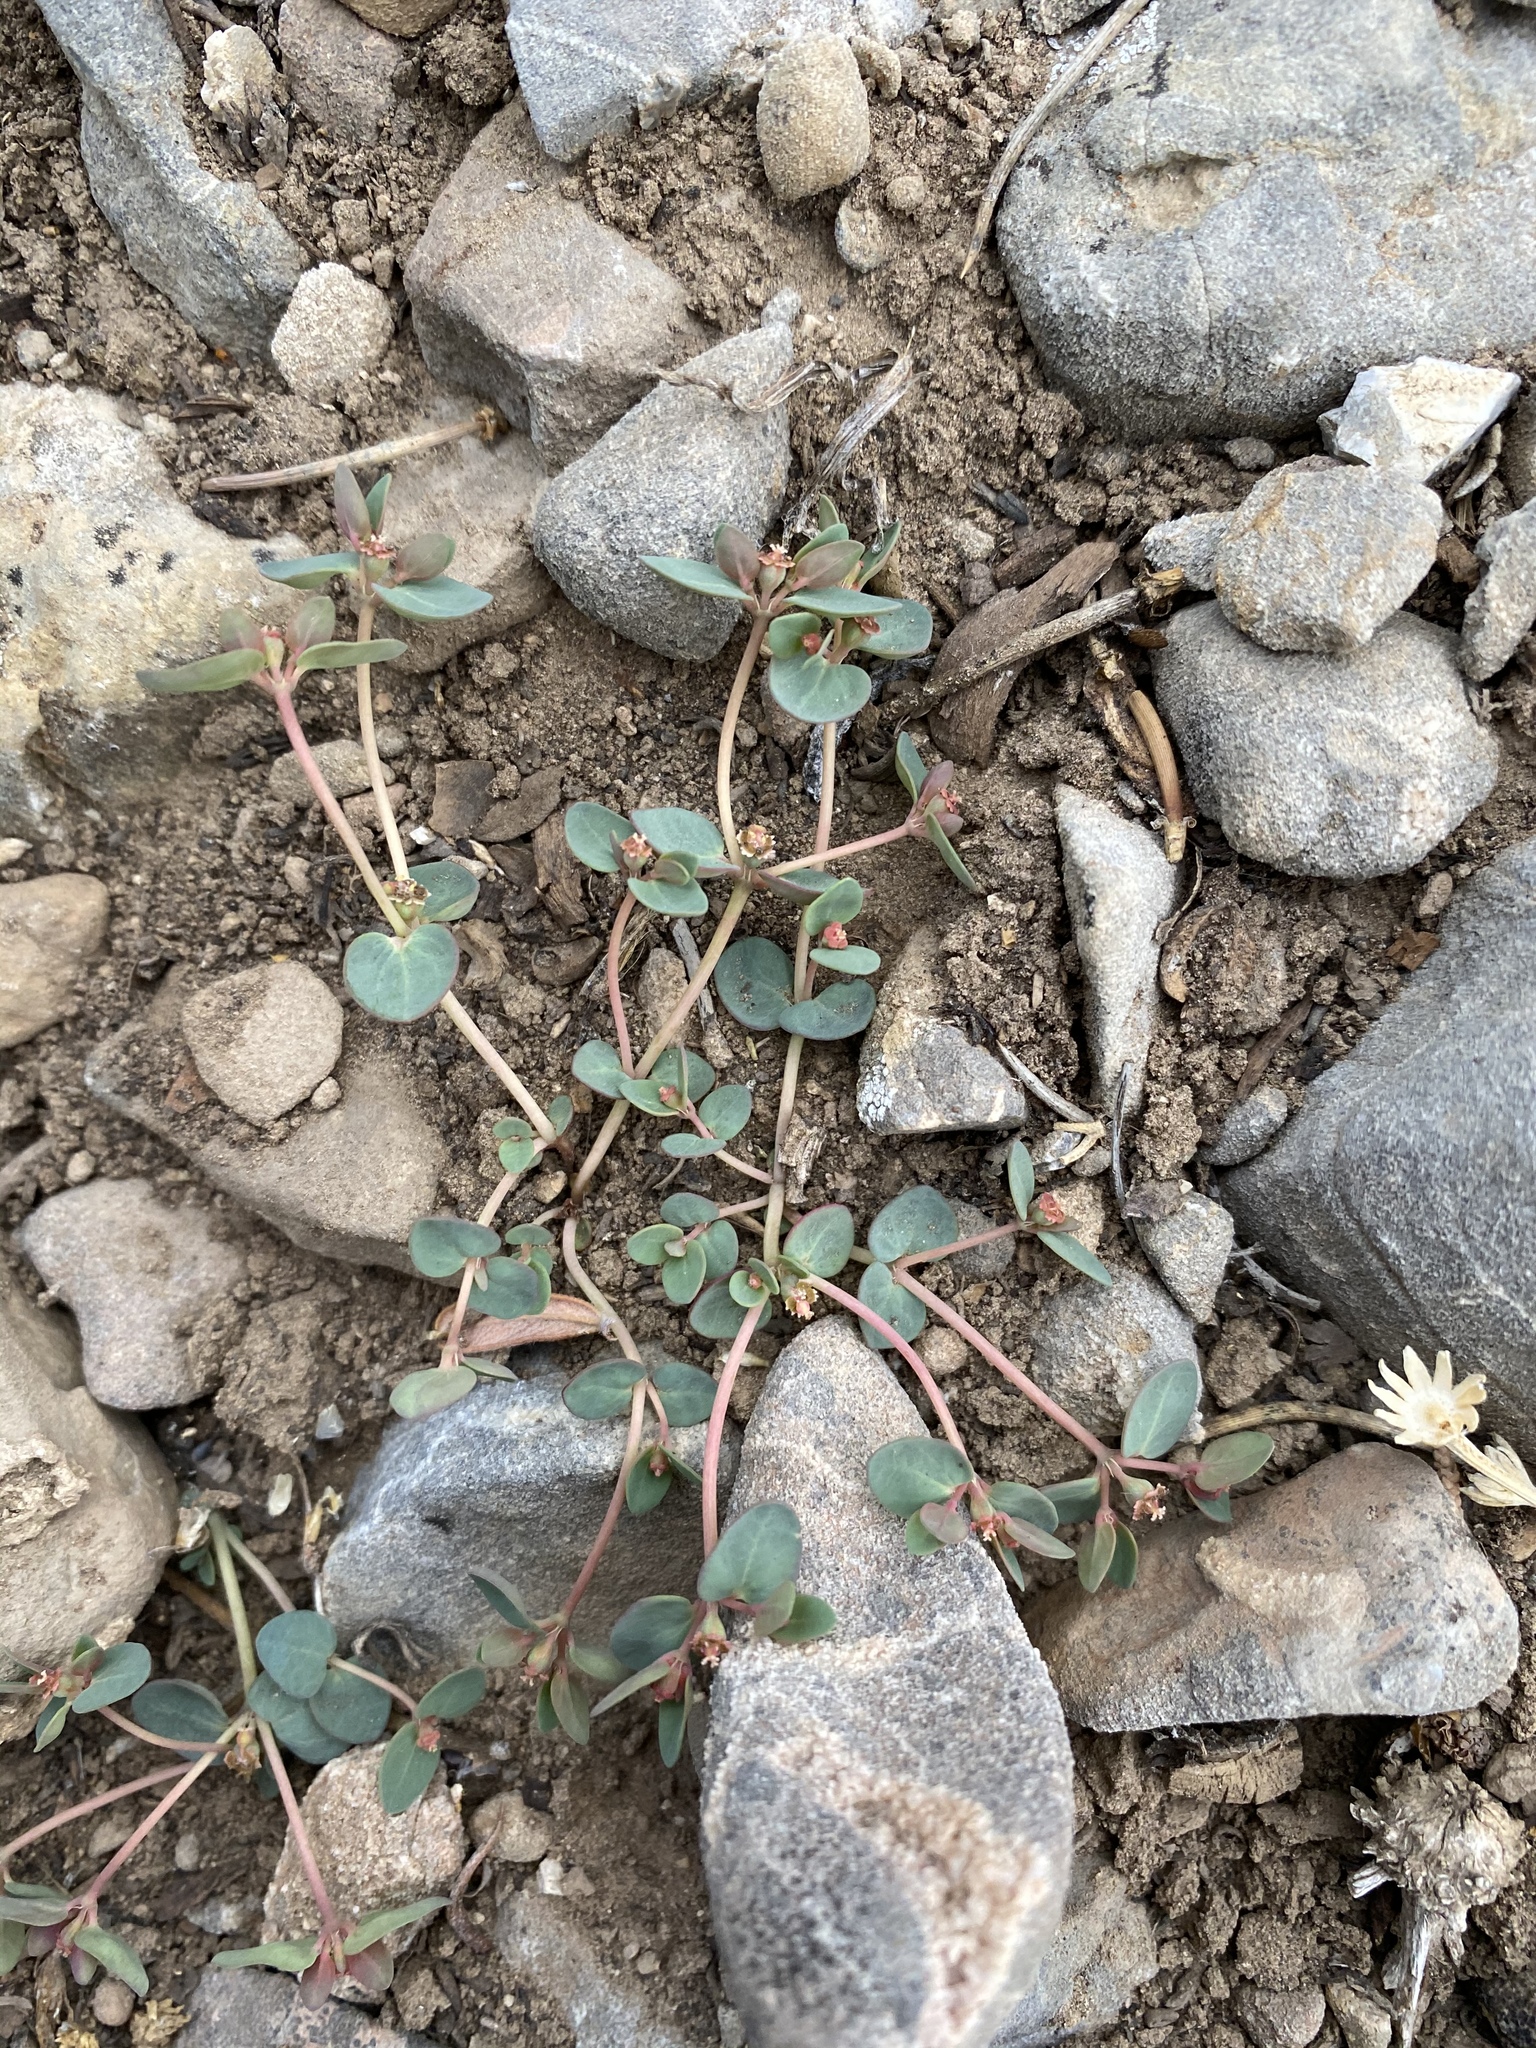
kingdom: Plantae
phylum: Tracheophyta
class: Magnoliopsida
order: Malpighiales
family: Euphorbiaceae
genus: Euphorbia
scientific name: Euphorbia fendleri
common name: Fendler's euphorbia
